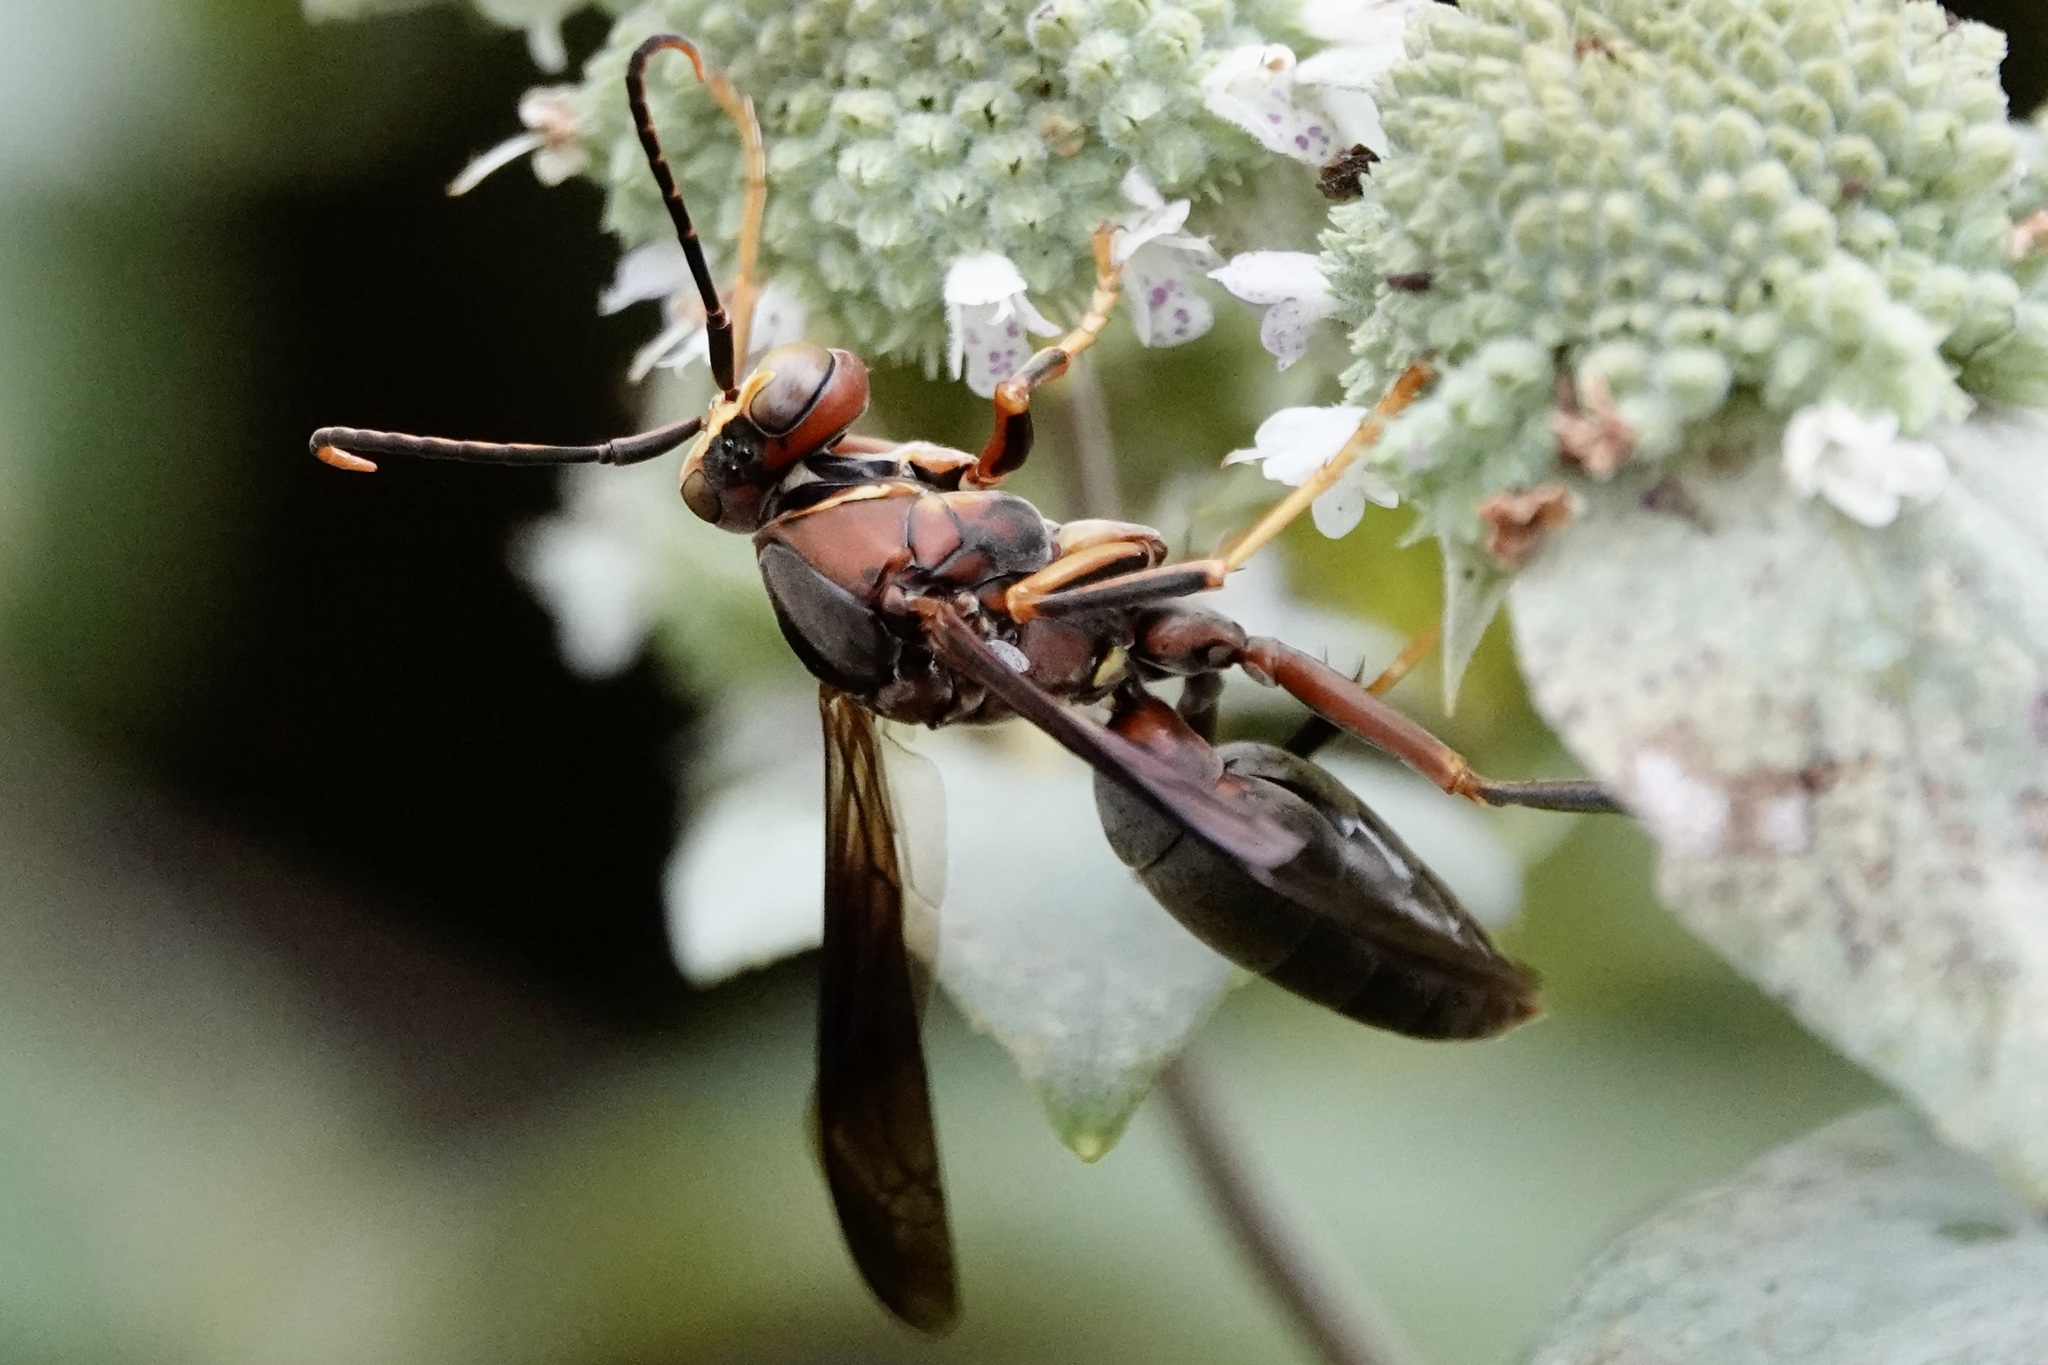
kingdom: Animalia
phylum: Arthropoda
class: Insecta
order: Hymenoptera
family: Eumenidae
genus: Polistes
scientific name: Polistes metricus
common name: Metric paper wasp
